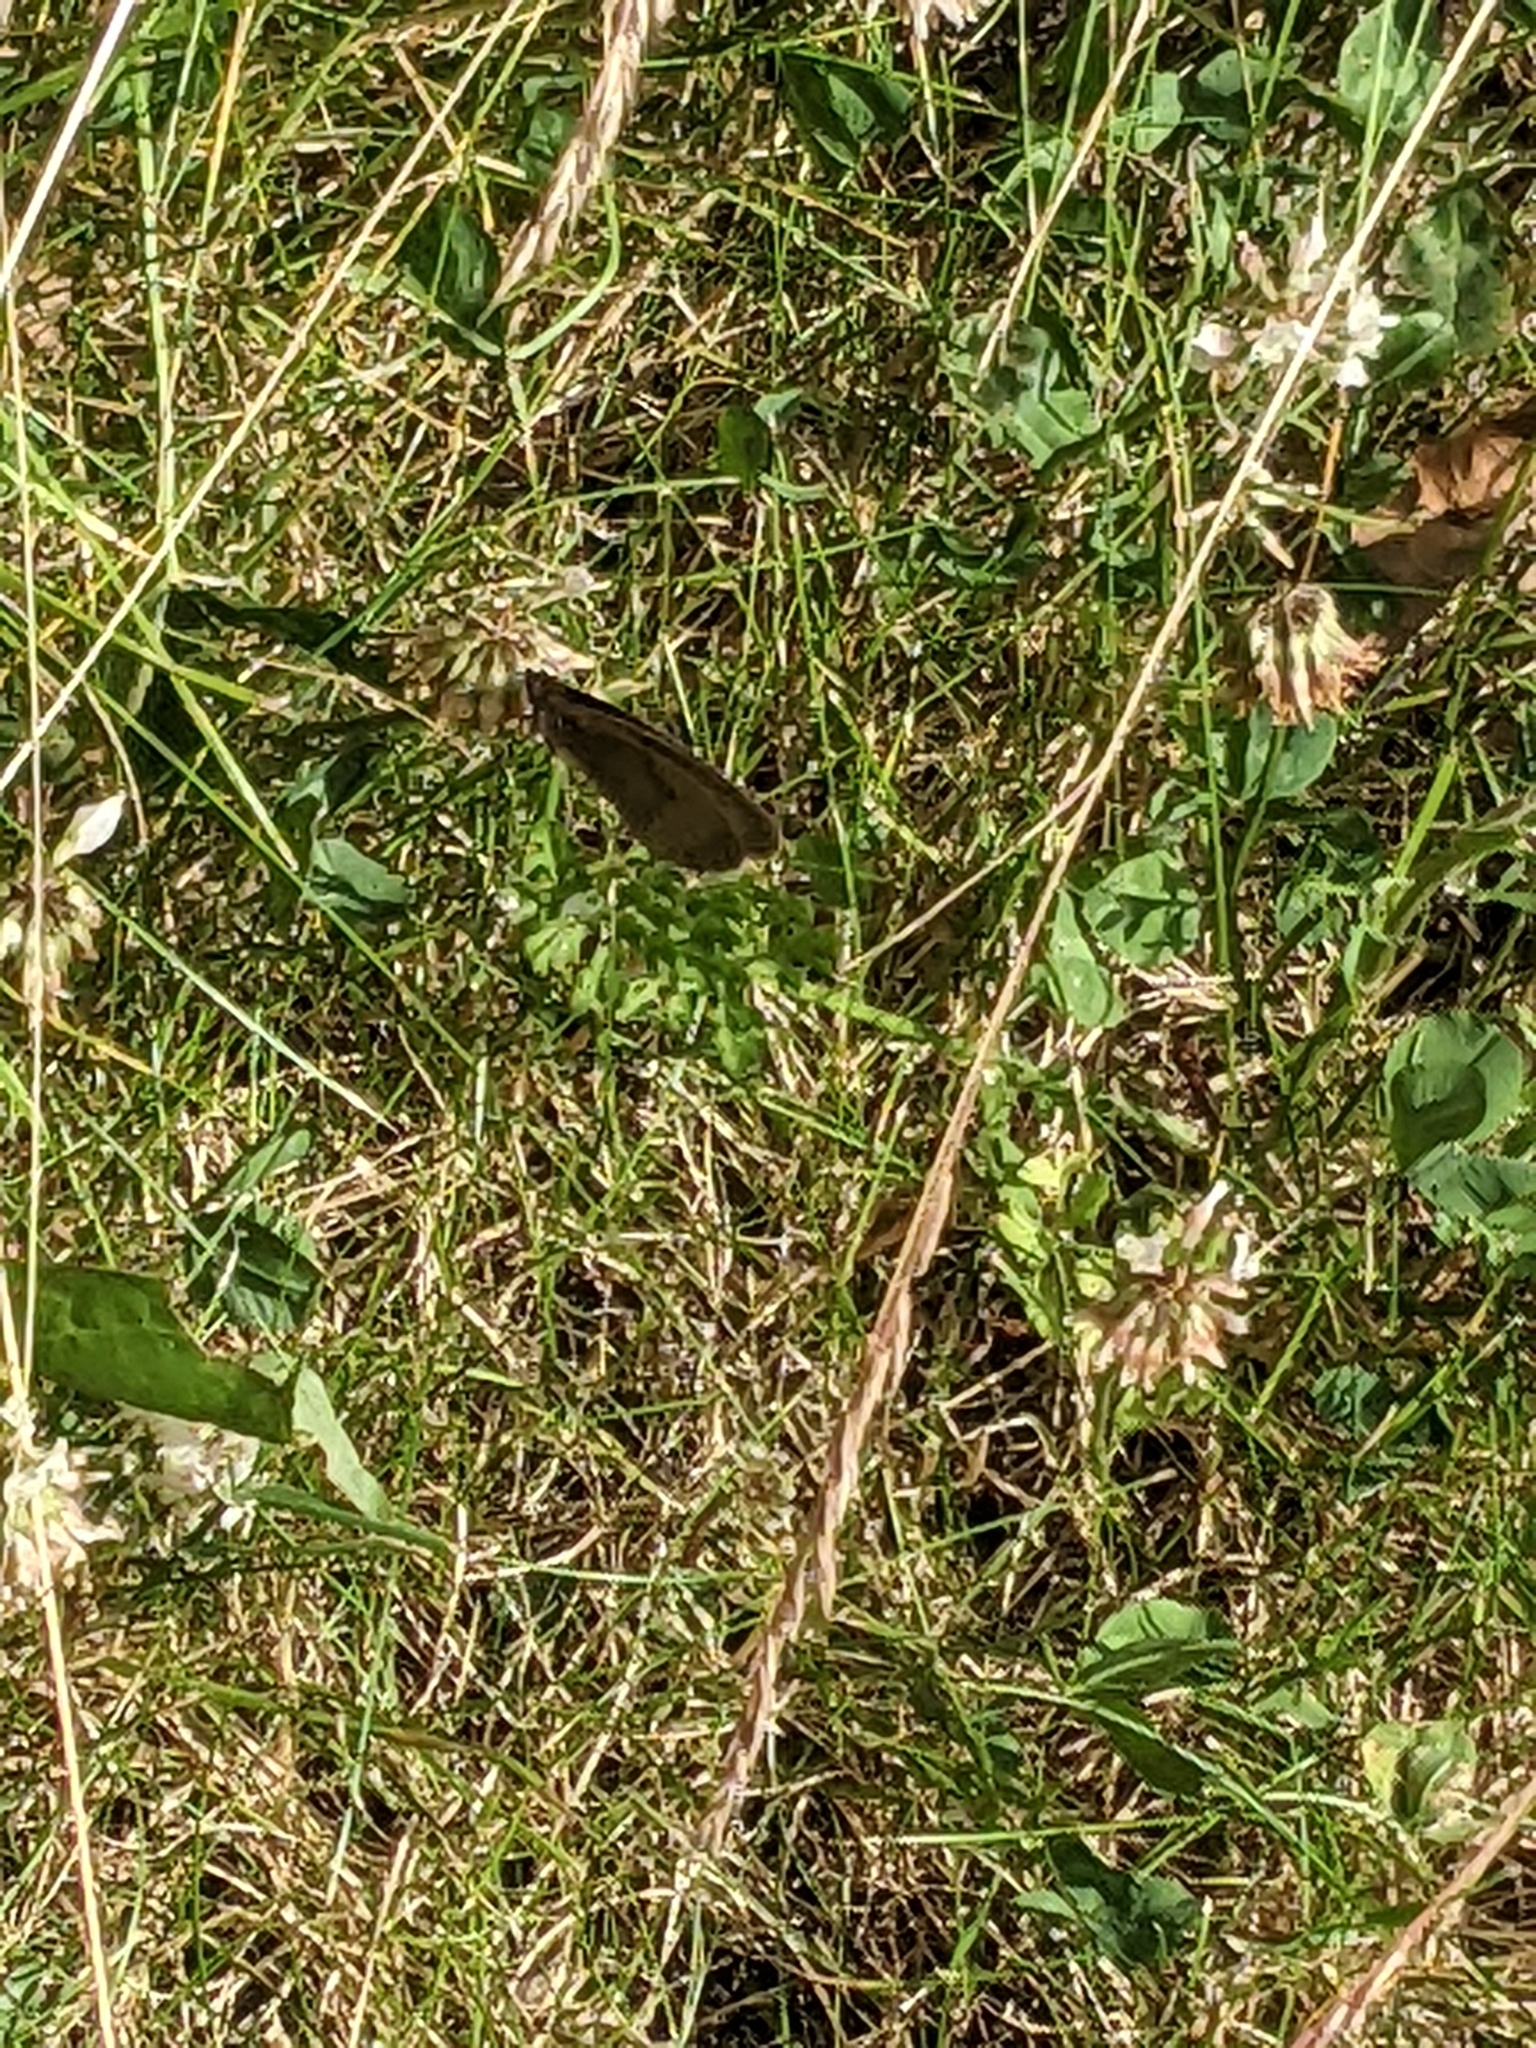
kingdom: Animalia
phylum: Arthropoda
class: Insecta
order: Lepidoptera
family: Nymphalidae
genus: Maniola
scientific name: Maniola jurtina
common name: Meadow brown
